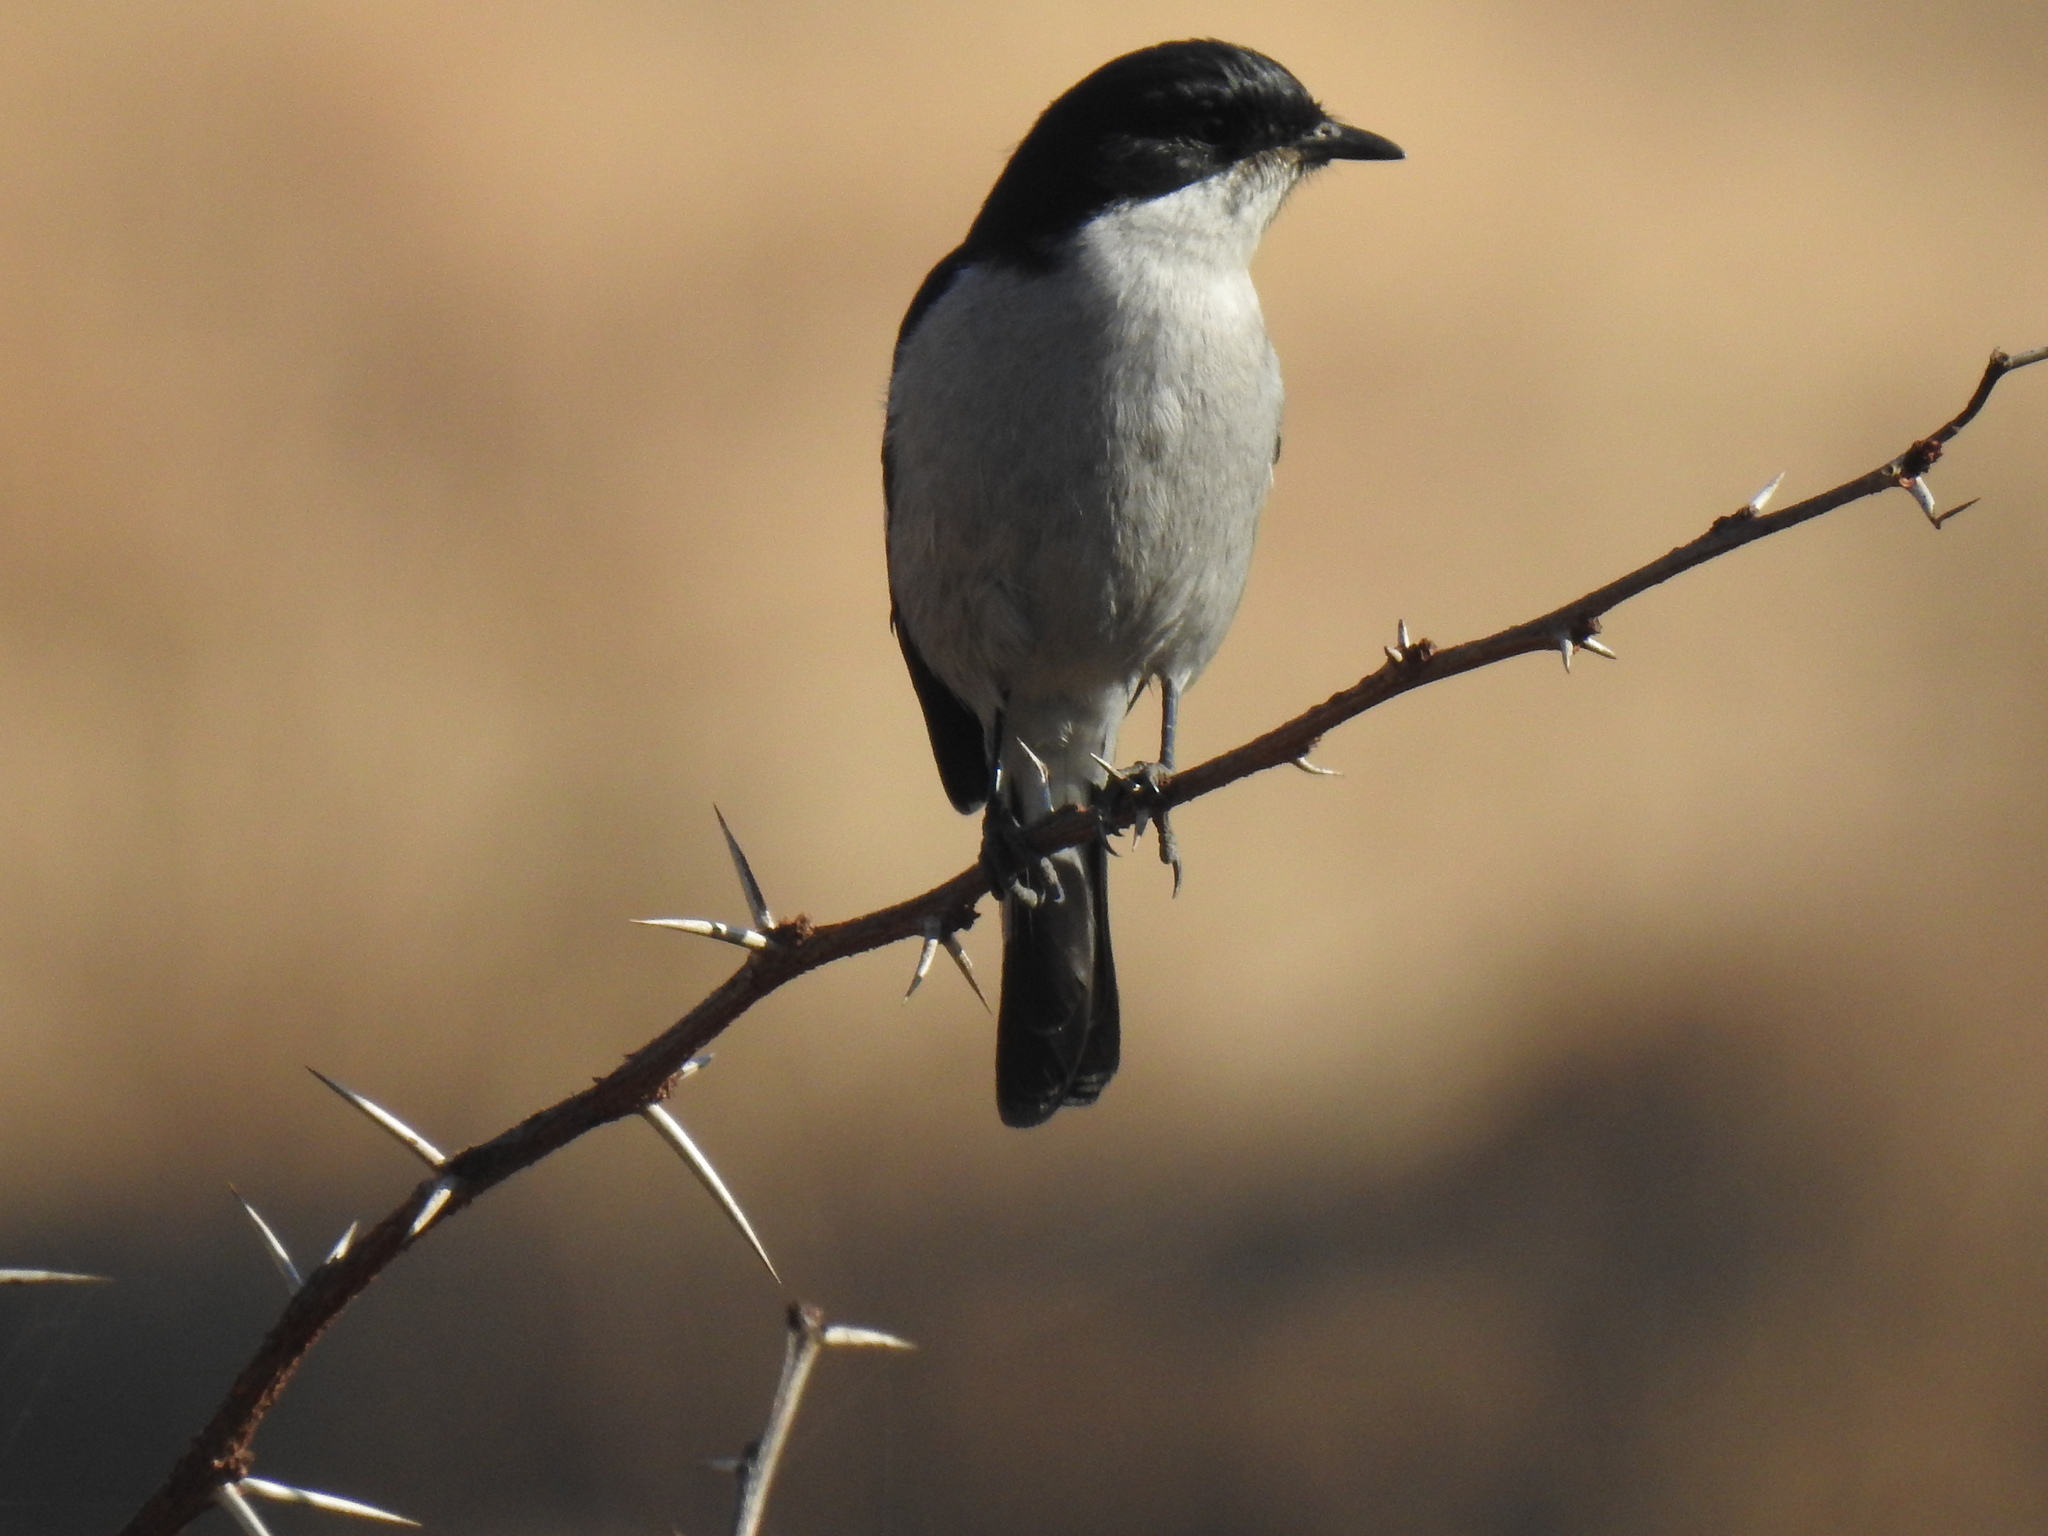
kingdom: Animalia
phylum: Chordata
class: Aves
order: Passeriformes
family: Muscicapidae
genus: Sigelus
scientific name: Sigelus silens
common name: Fiscal flycatcher
